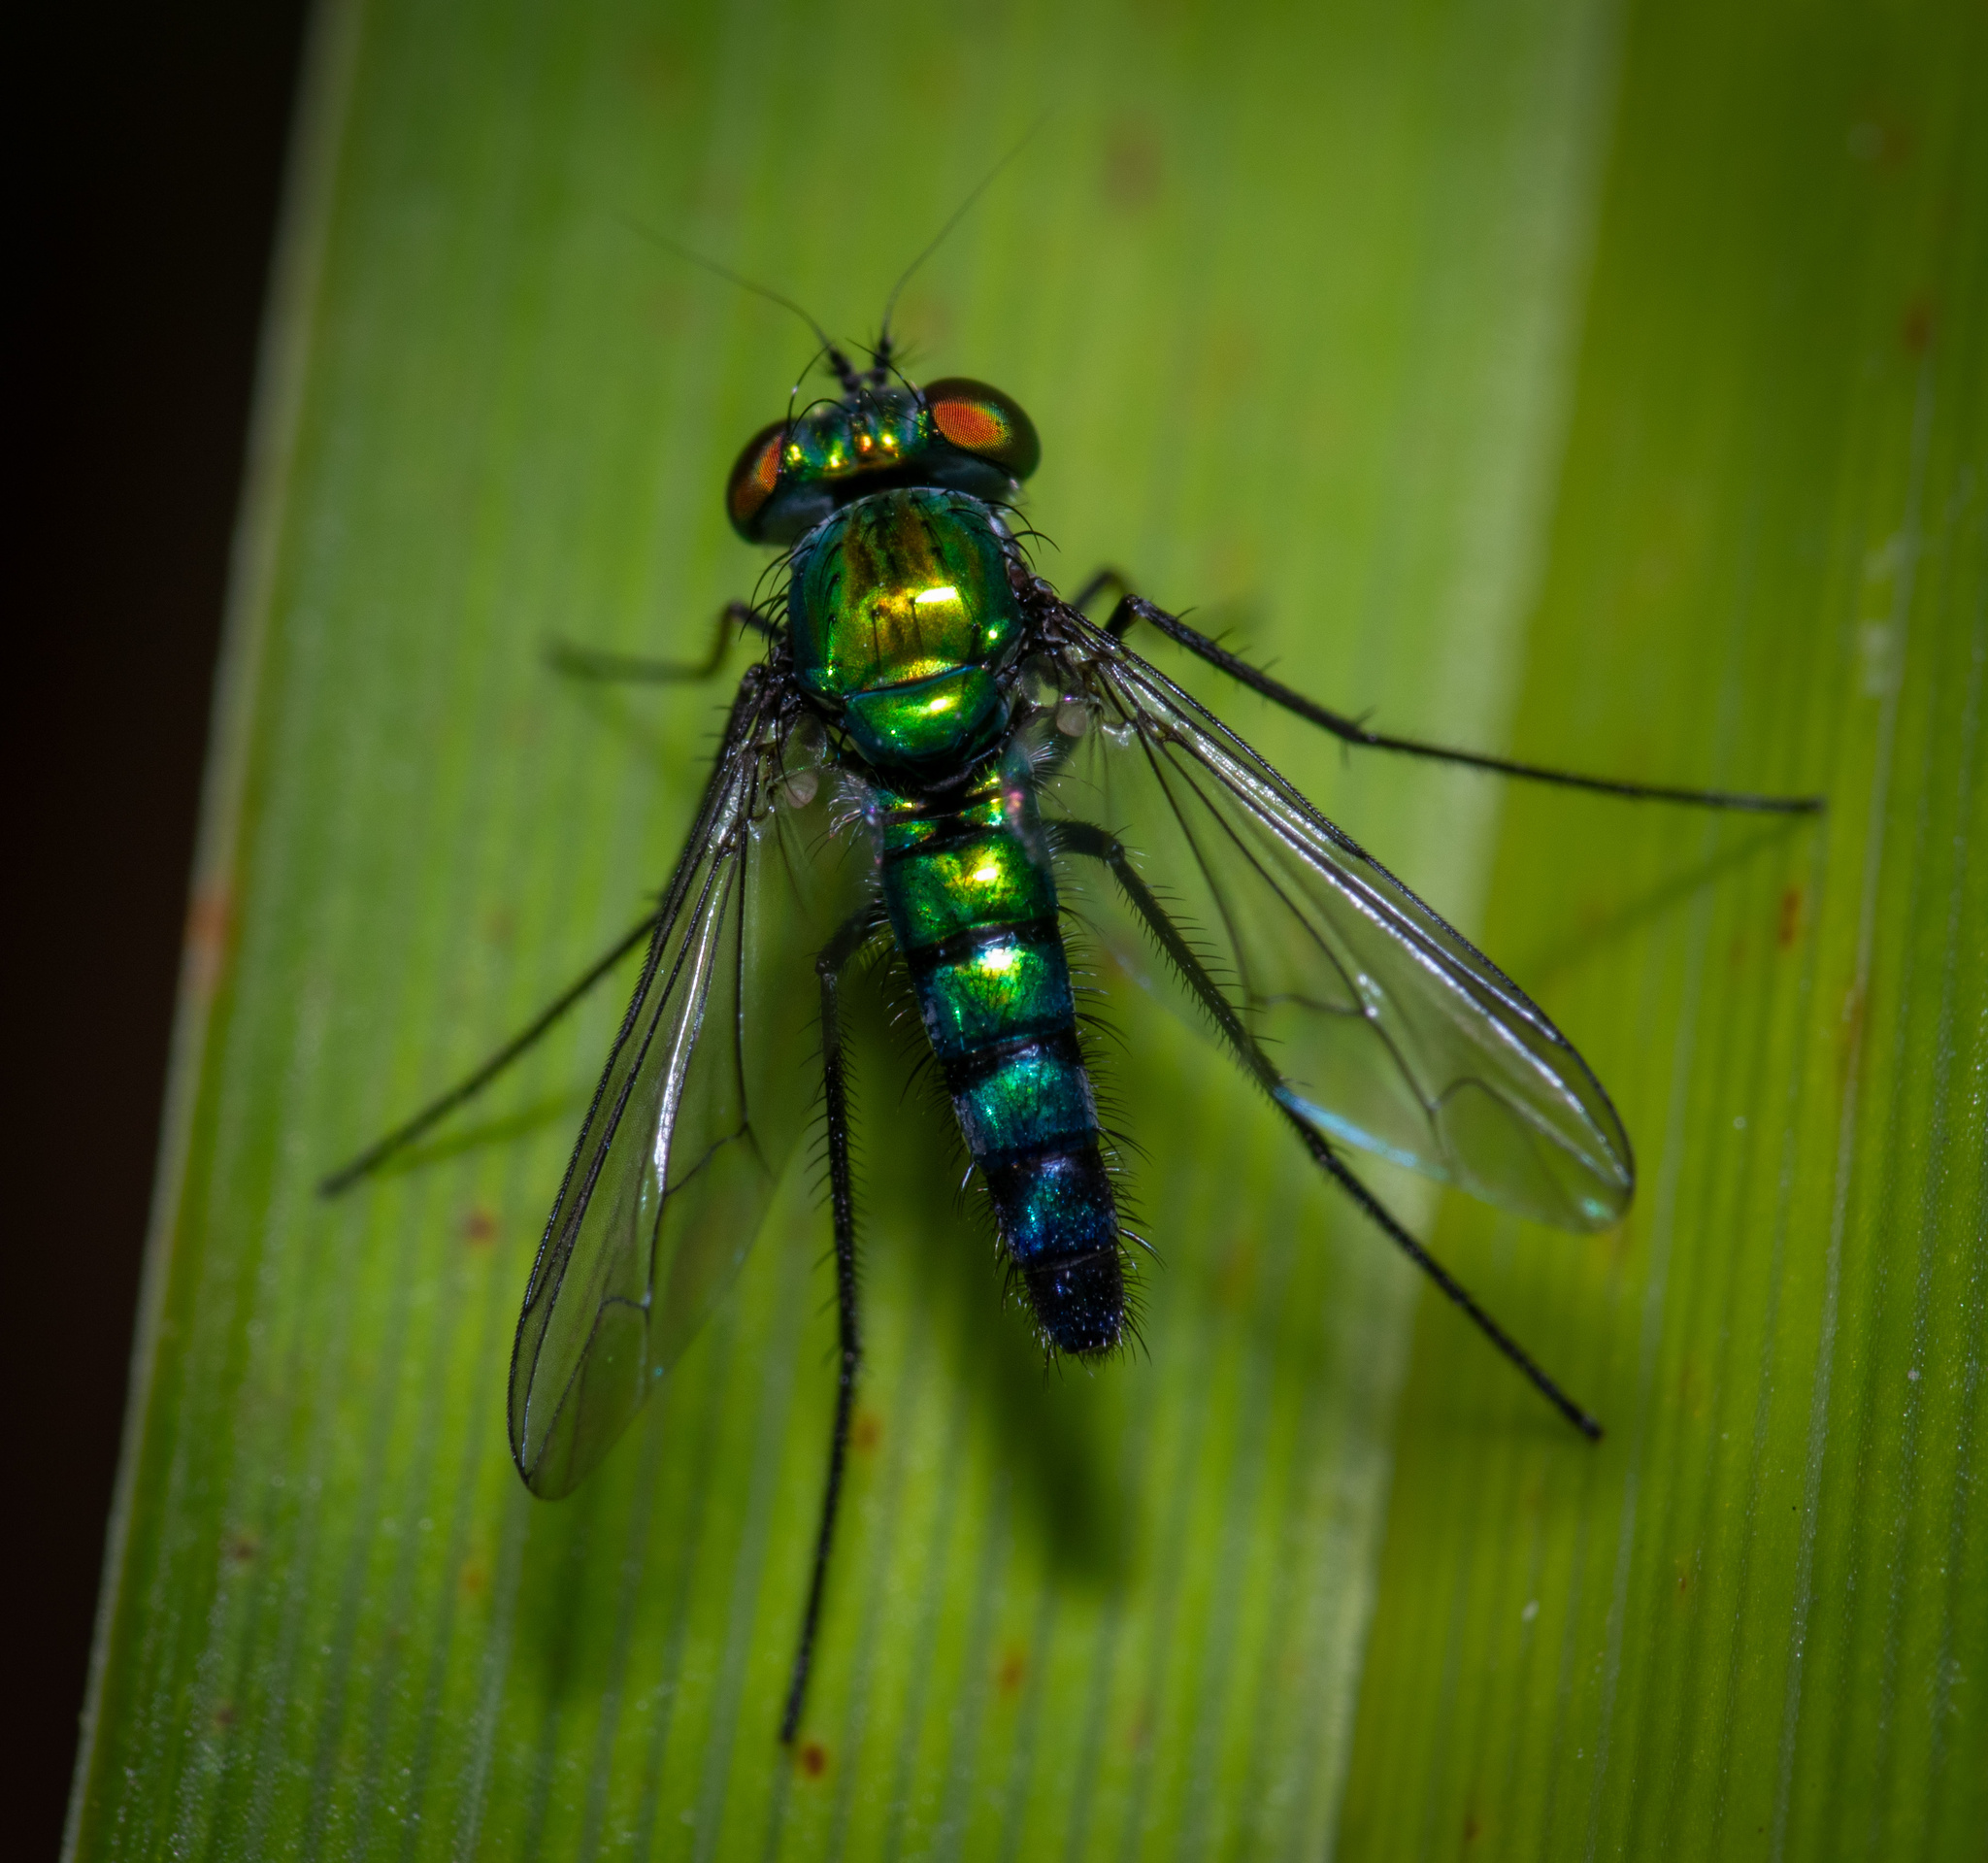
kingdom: Animalia
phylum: Arthropoda
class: Insecta
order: Diptera
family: Dolichopodidae
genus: Condylostylus
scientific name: Condylostylus longicornis
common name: Long-legged fly
